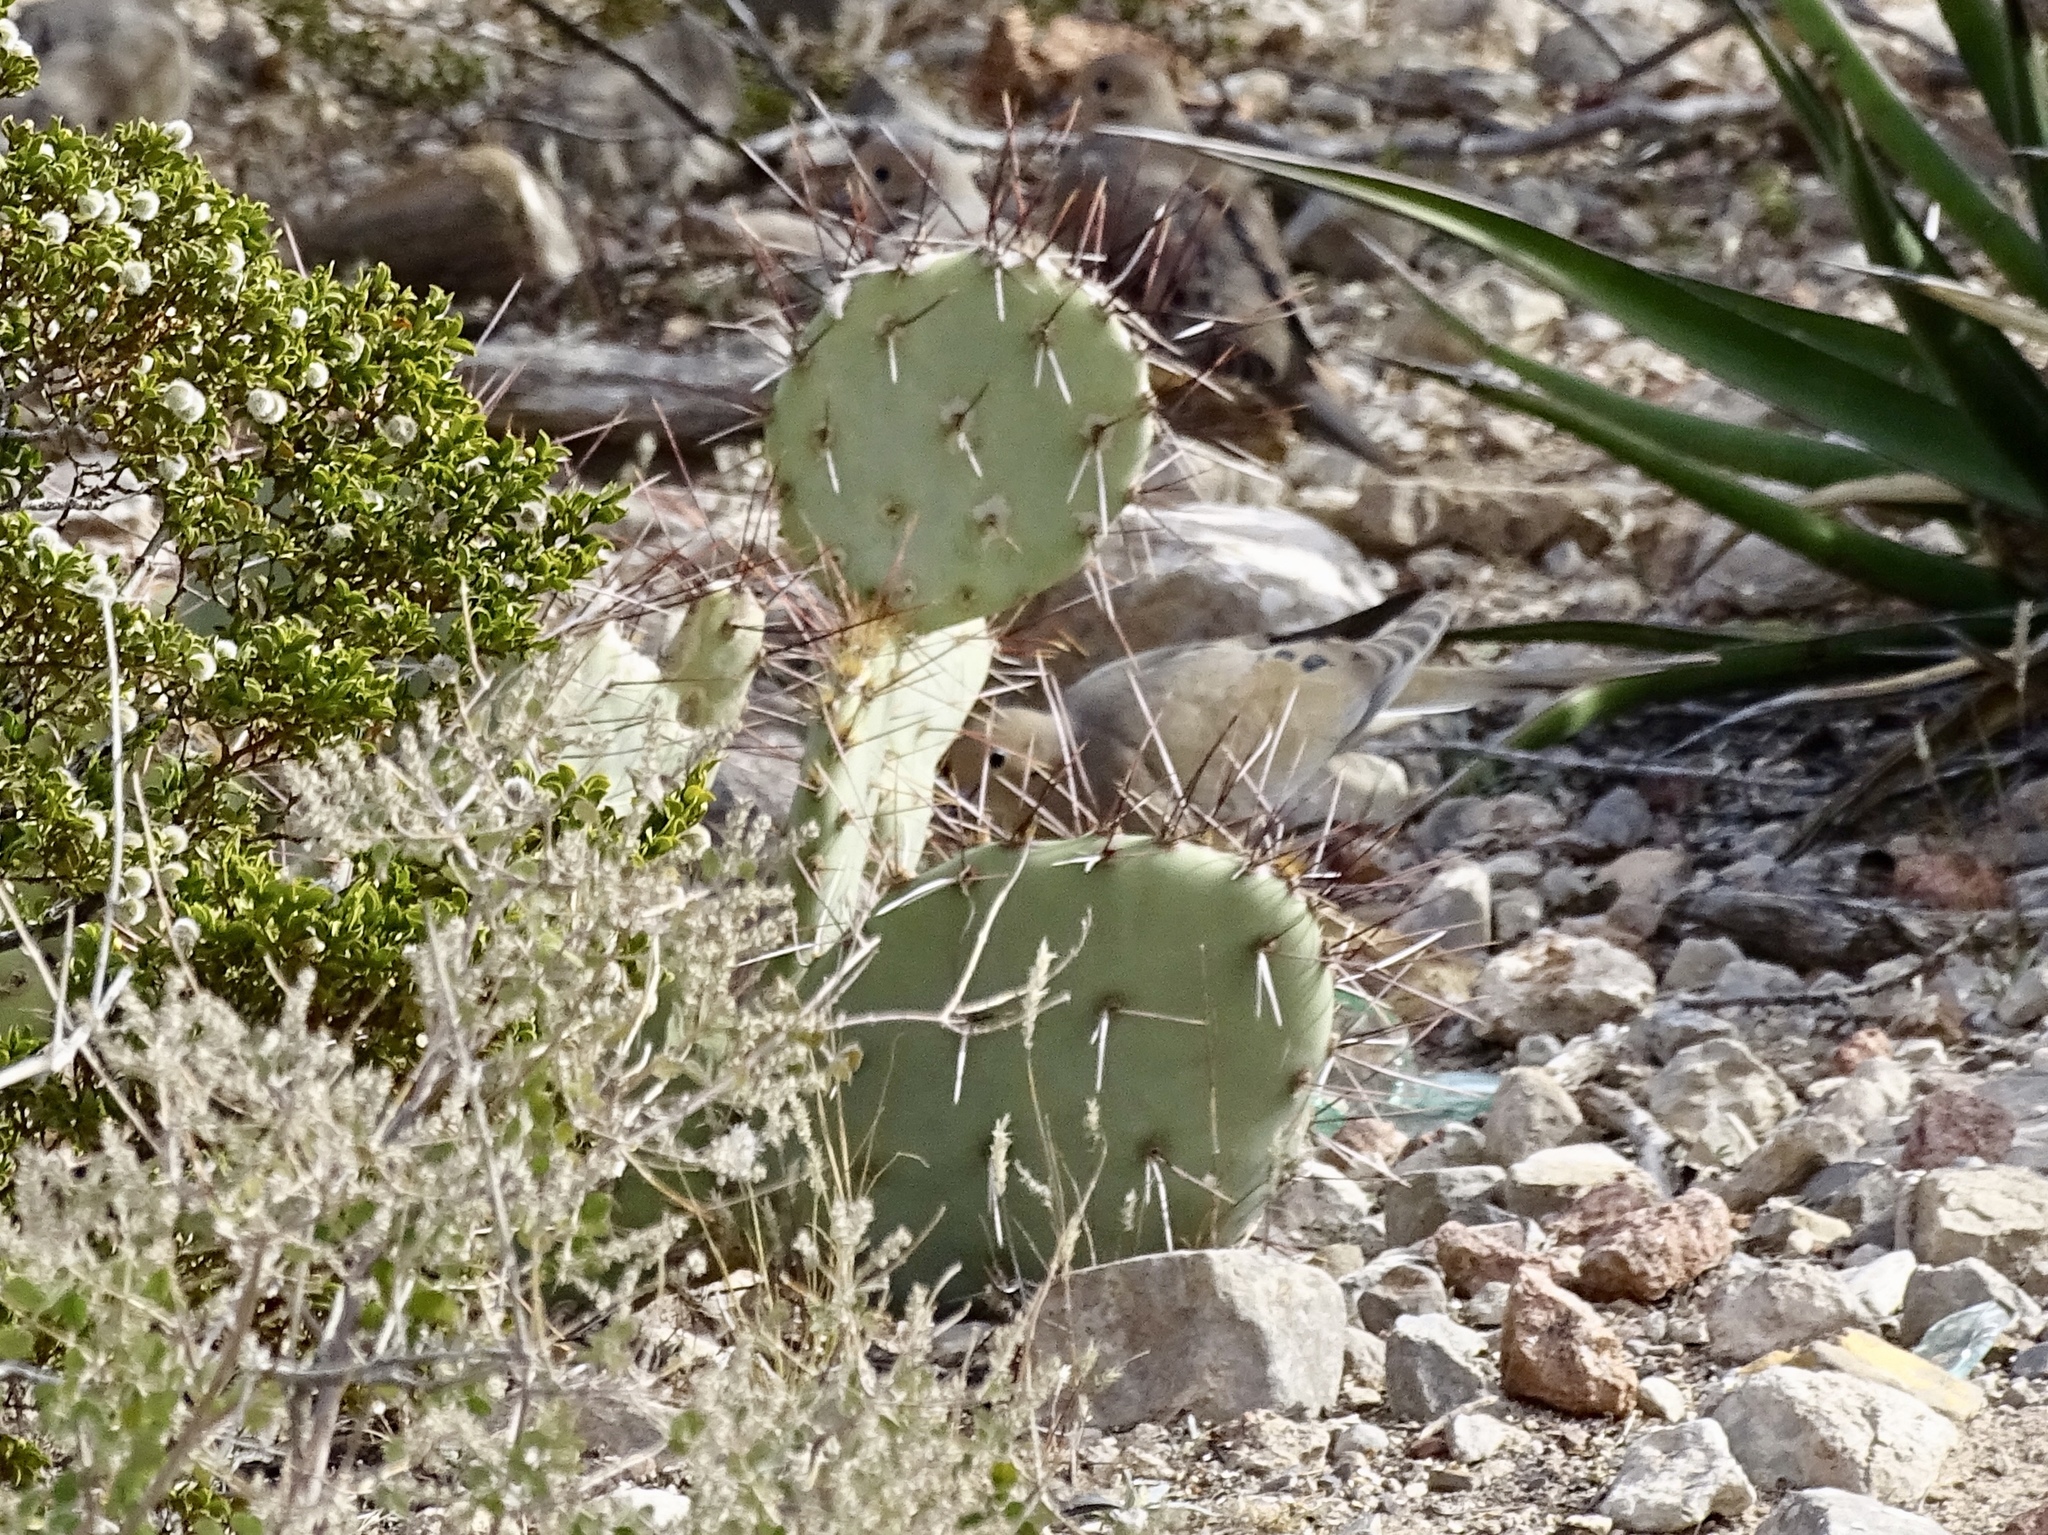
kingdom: Plantae
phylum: Tracheophyta
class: Magnoliopsida
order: Caryophyllales
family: Cactaceae
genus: Opuntia
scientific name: Opuntia phaeacantha
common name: New mexico prickly-pear
